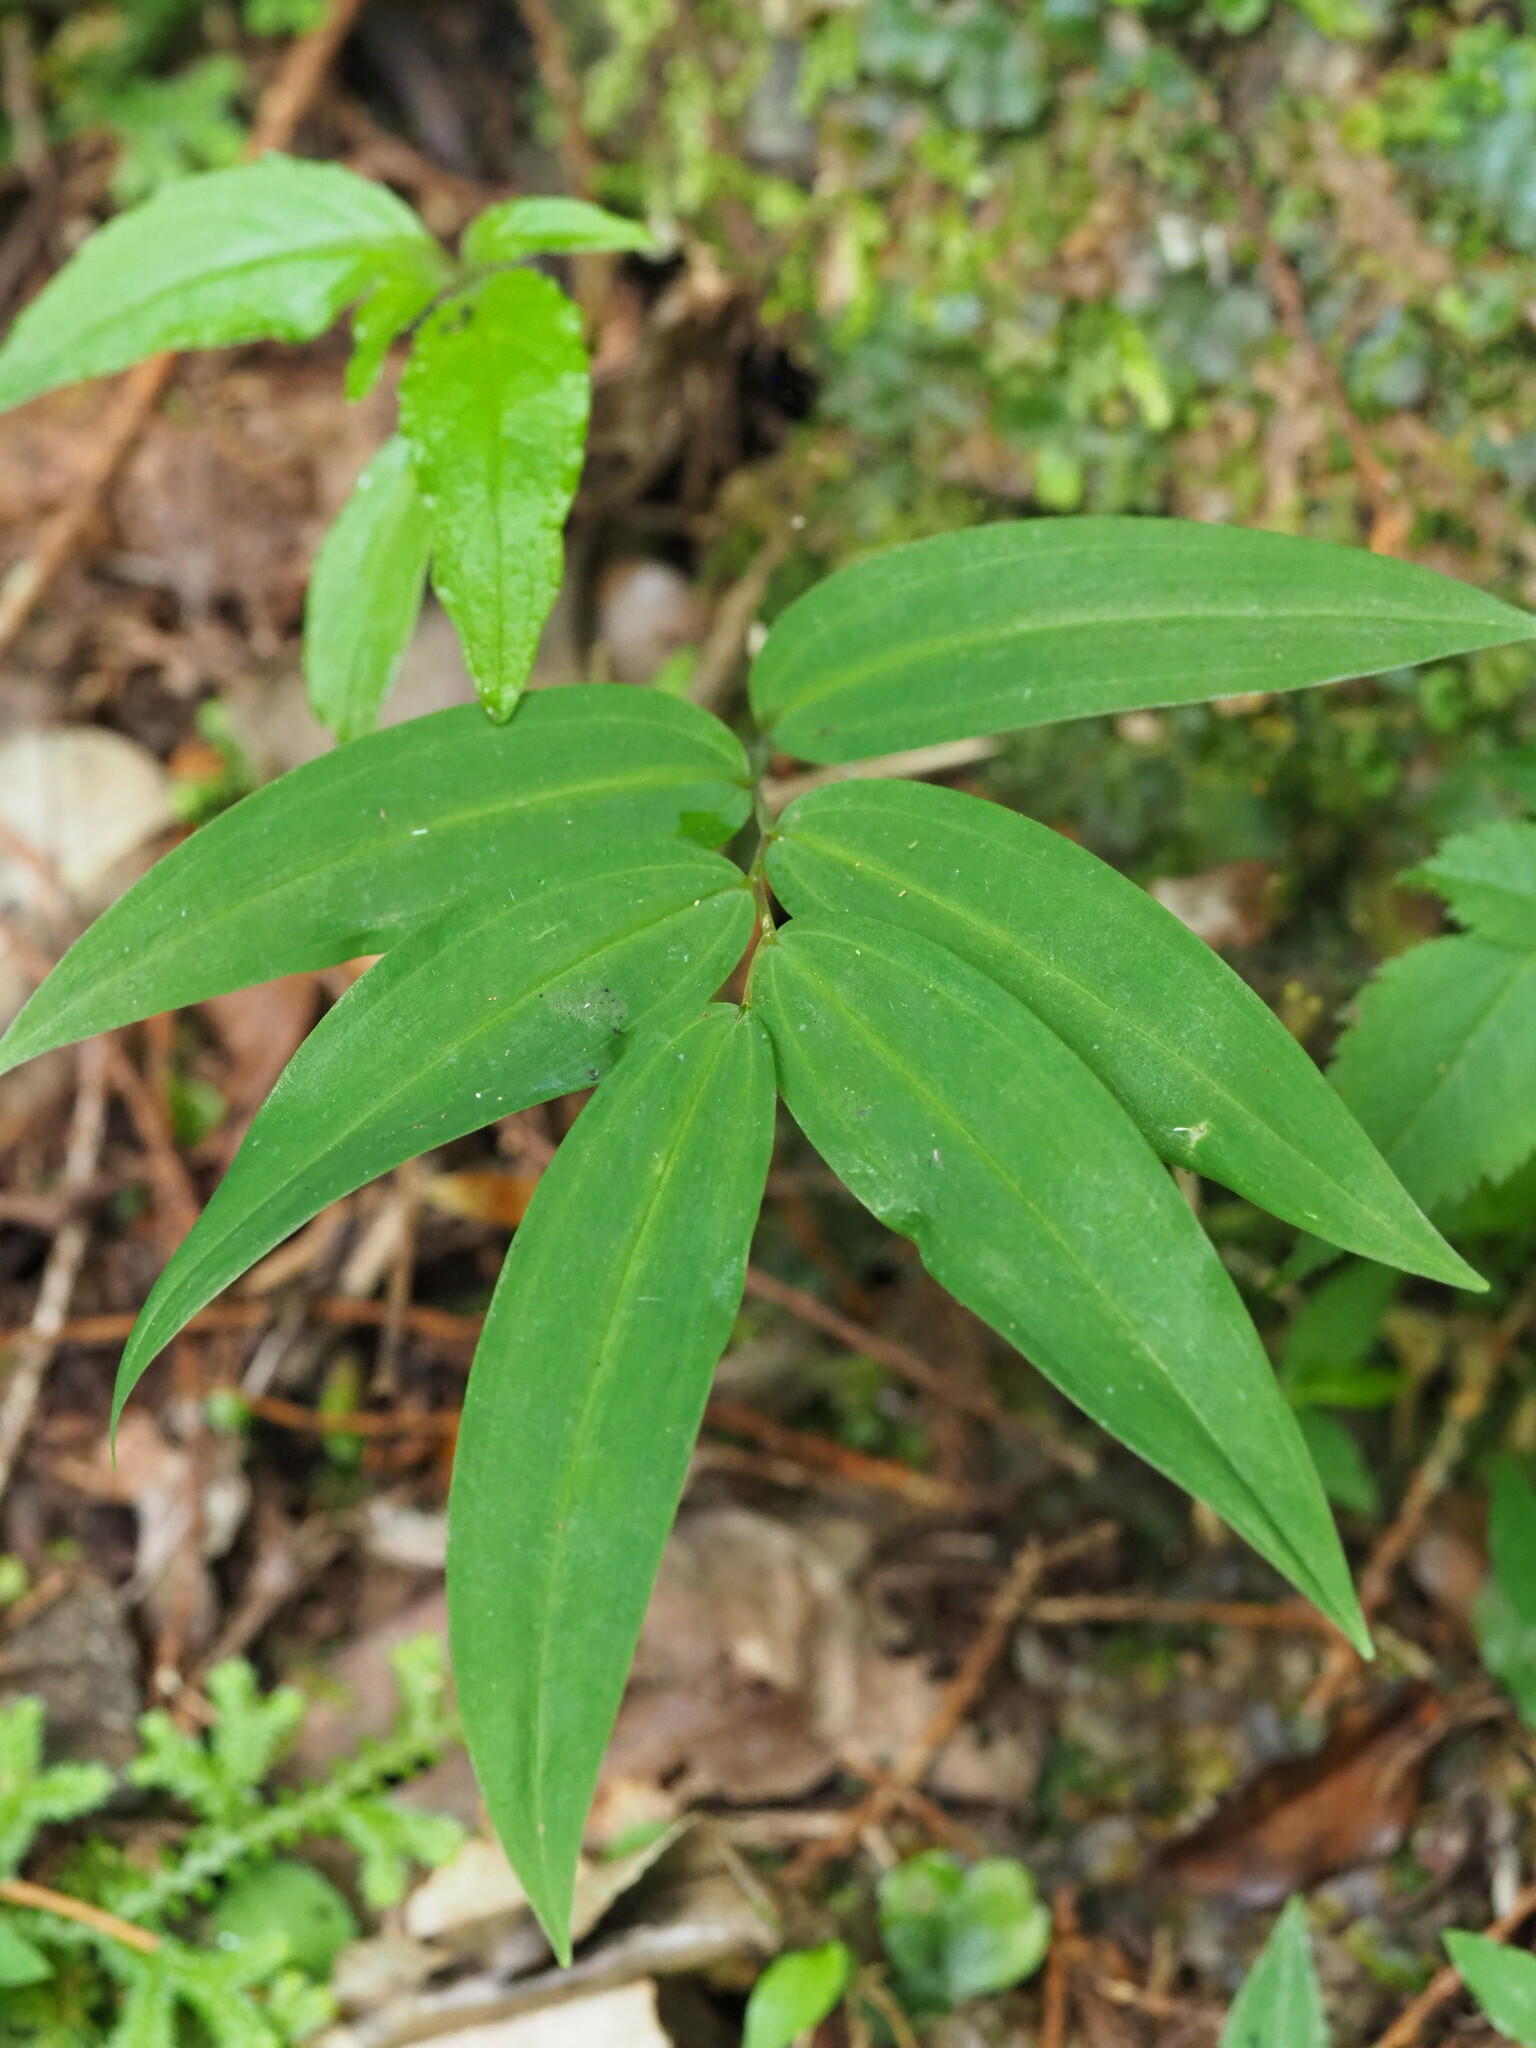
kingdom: Plantae
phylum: Tracheophyta
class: Liliopsida
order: Asparagales
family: Asparagaceae
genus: Polygonatum
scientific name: Polygonatum arisanense
